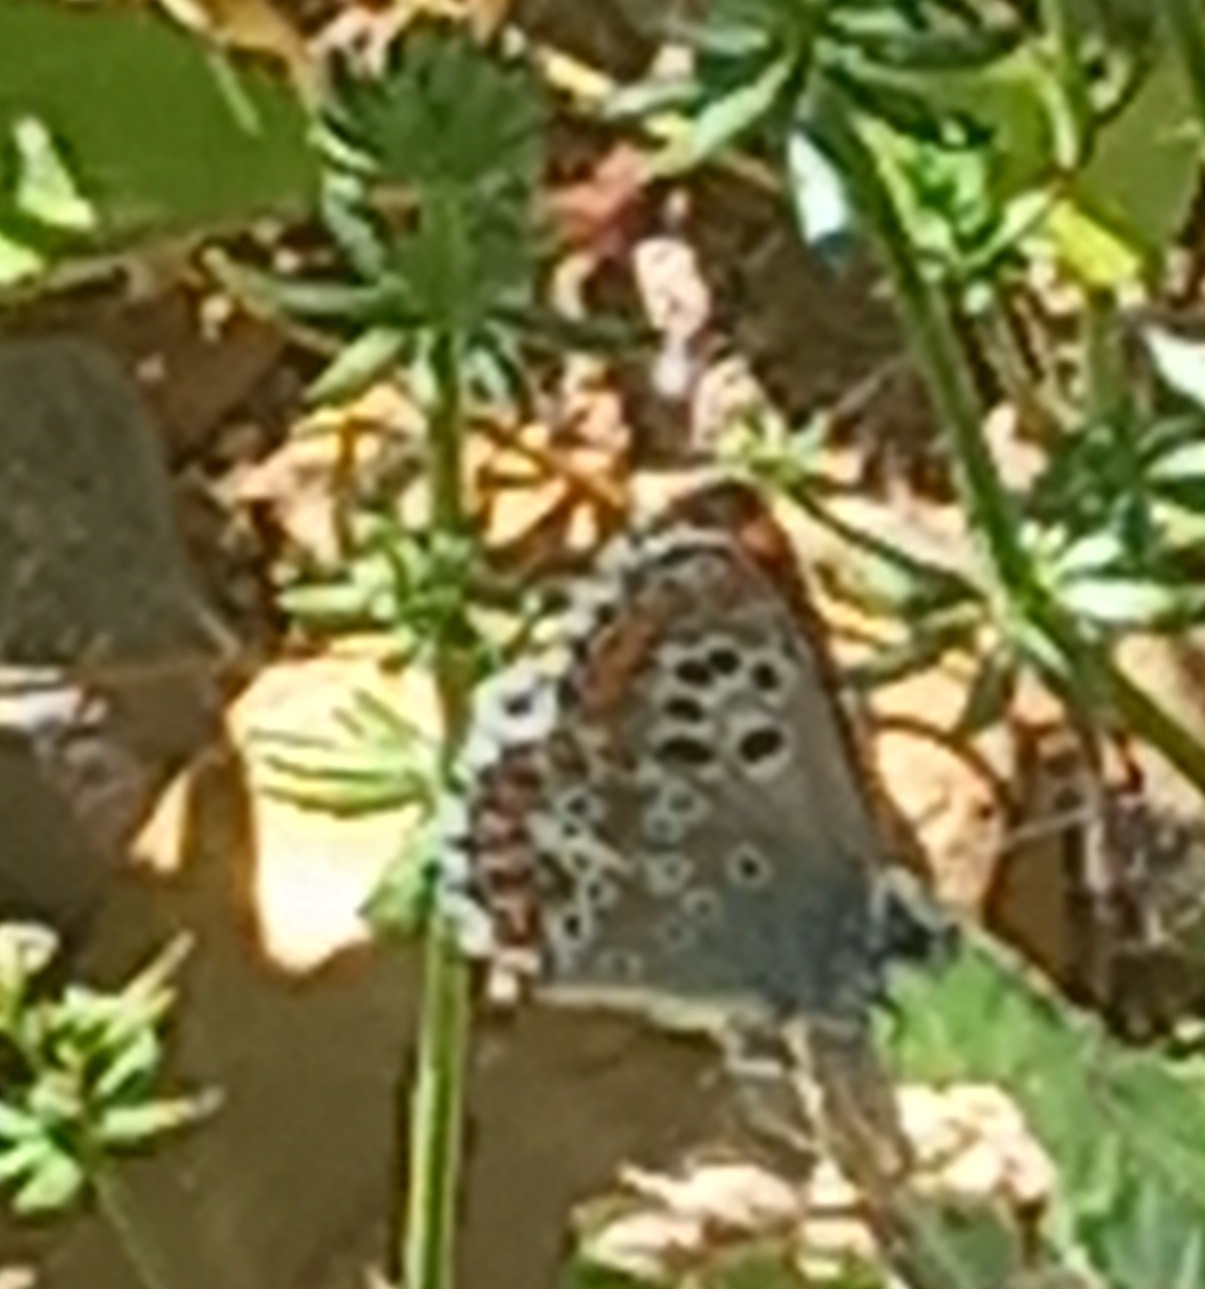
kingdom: Animalia
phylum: Arthropoda
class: Insecta
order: Lepidoptera
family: Lycaenidae
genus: Aricia
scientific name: Aricia cramera
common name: Eschscholtz´s brown  argus
